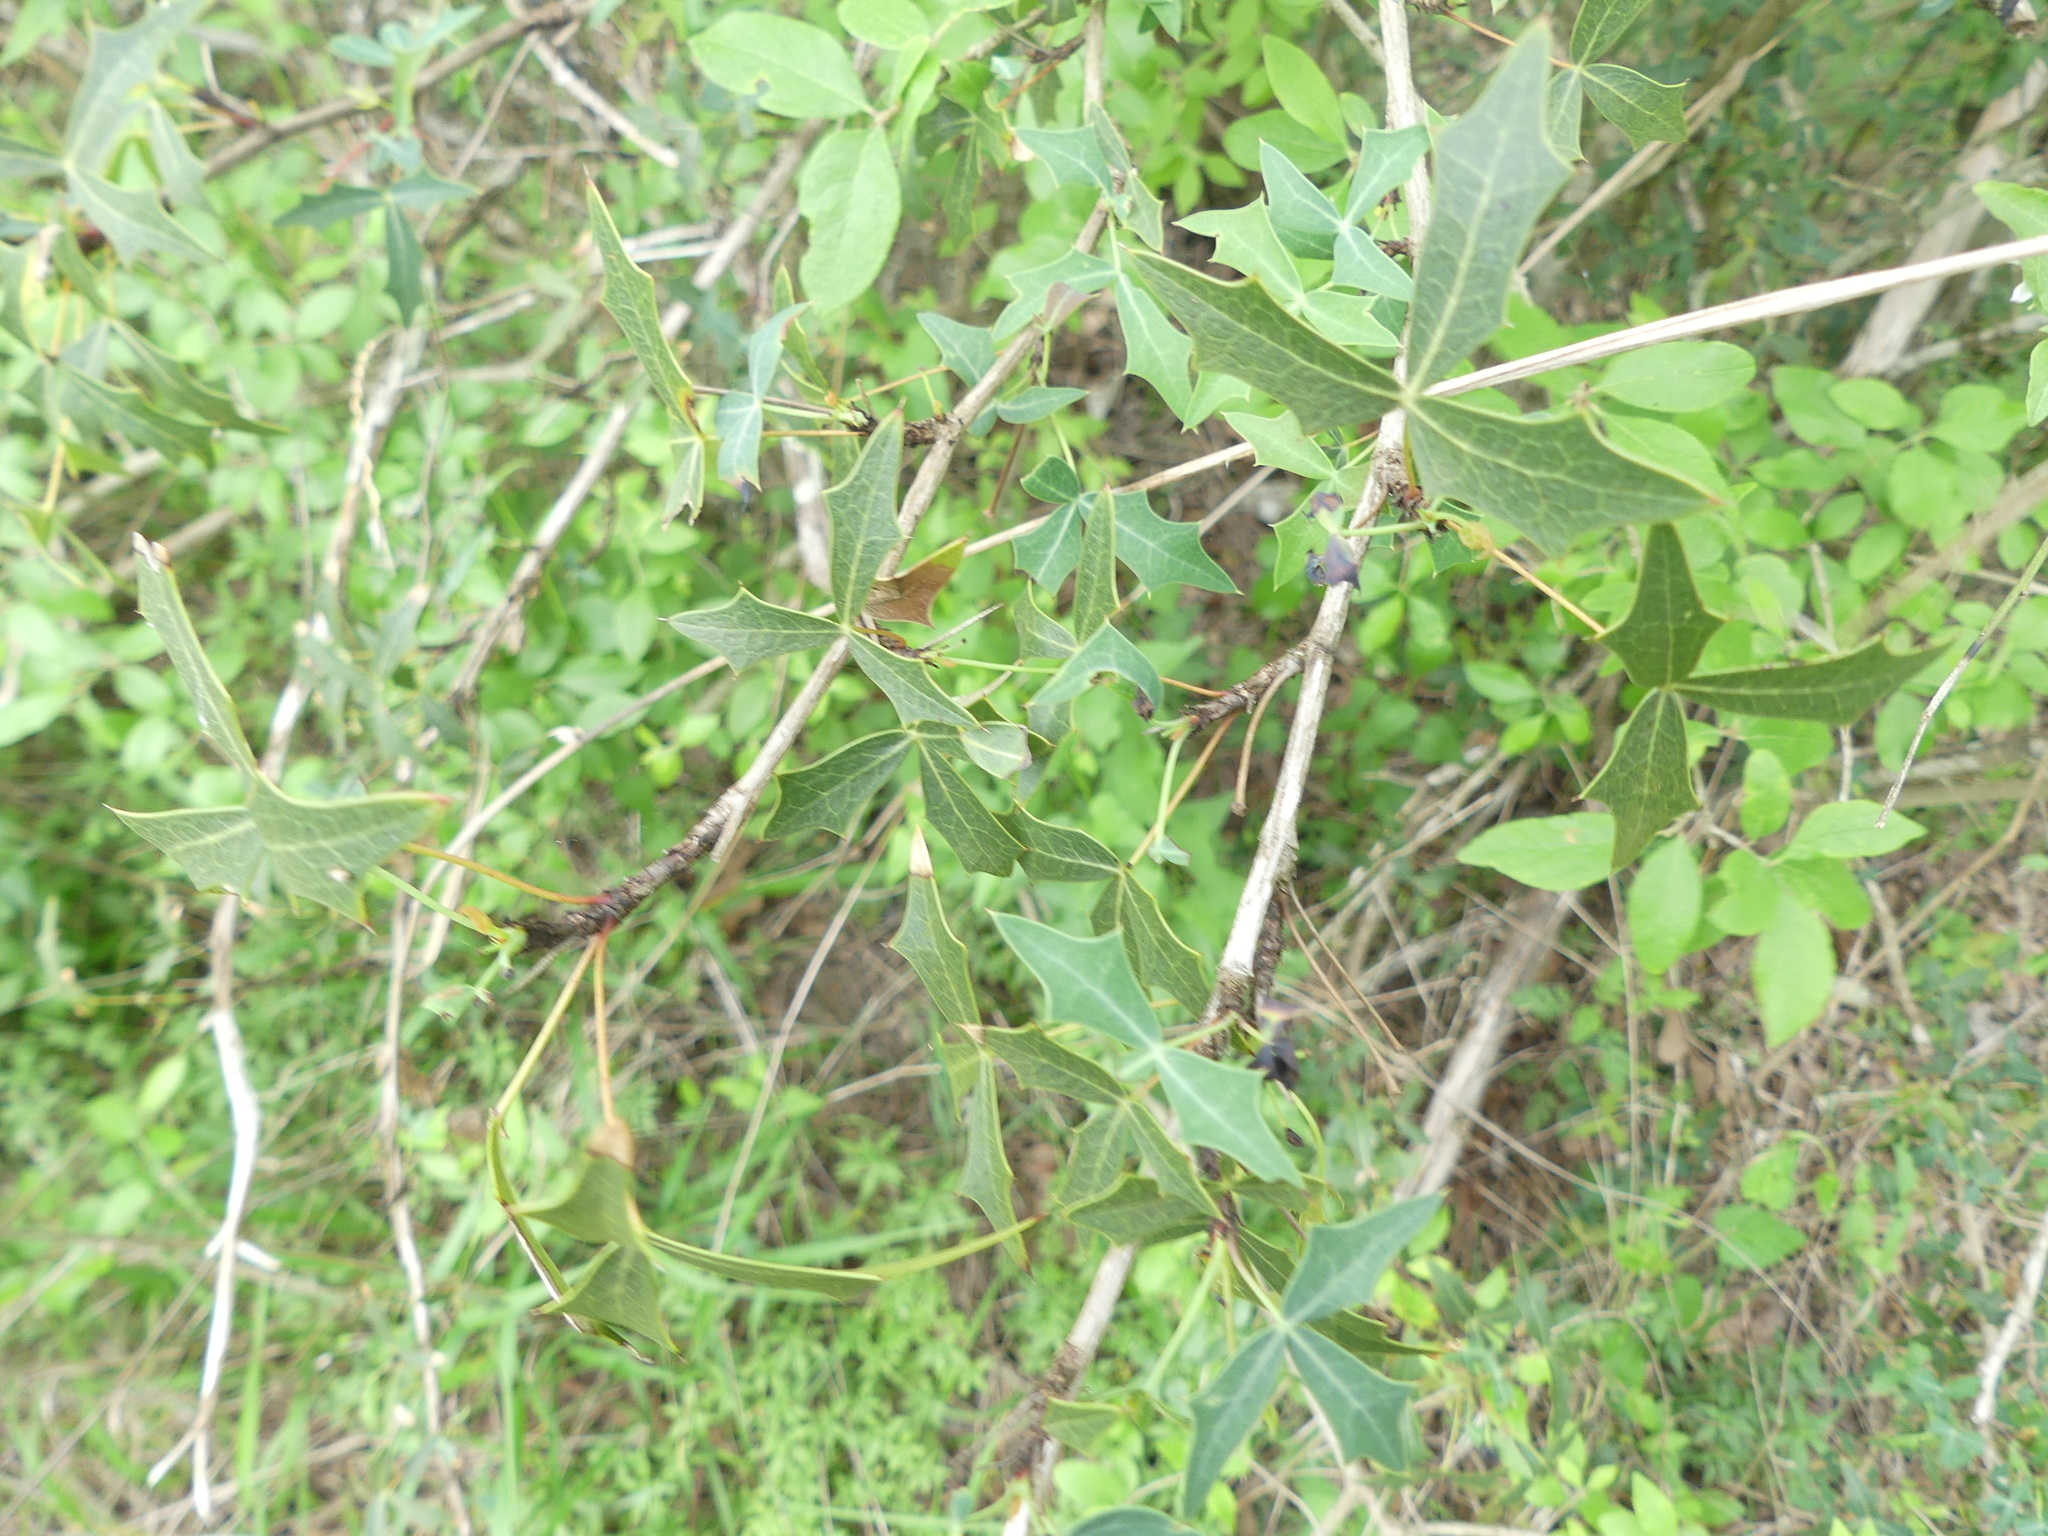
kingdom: Plantae
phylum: Tracheophyta
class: Magnoliopsida
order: Ranunculales
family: Berberidaceae
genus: Alloberberis
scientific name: Alloberberis trifoliolata
